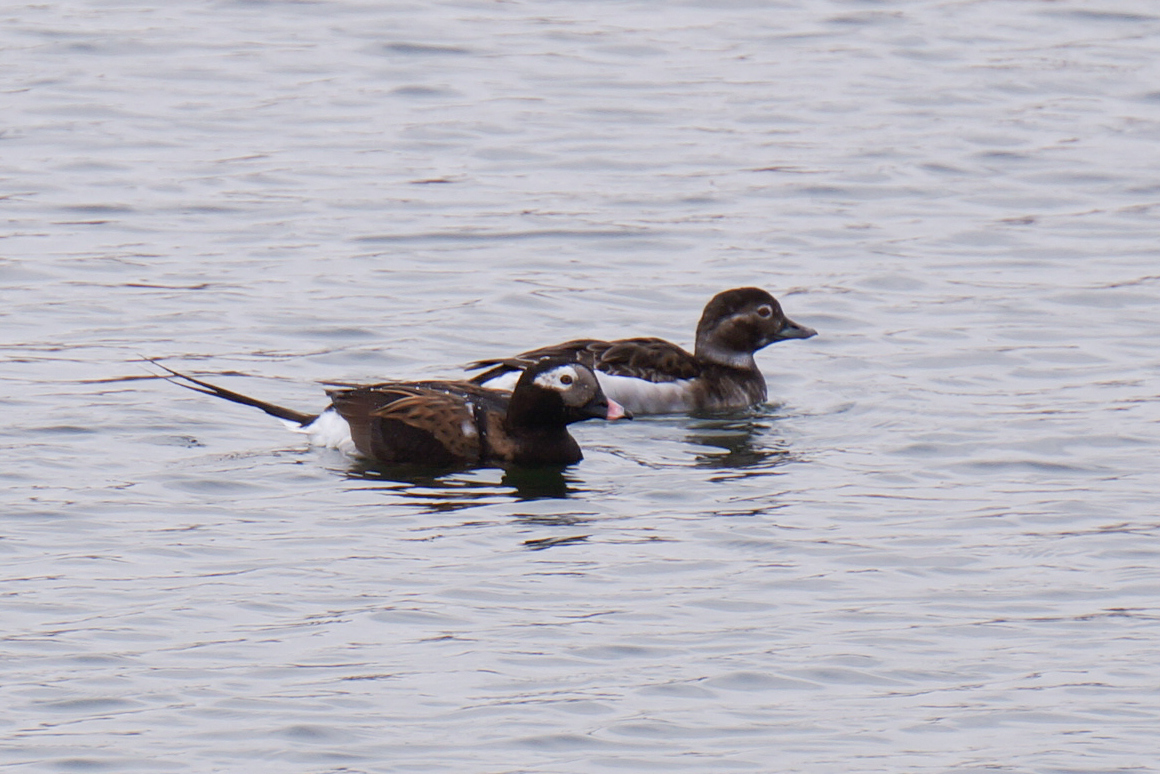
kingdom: Animalia
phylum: Chordata
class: Aves
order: Anseriformes
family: Anatidae
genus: Clangula
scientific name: Clangula hyemalis
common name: Long-tailed duck
